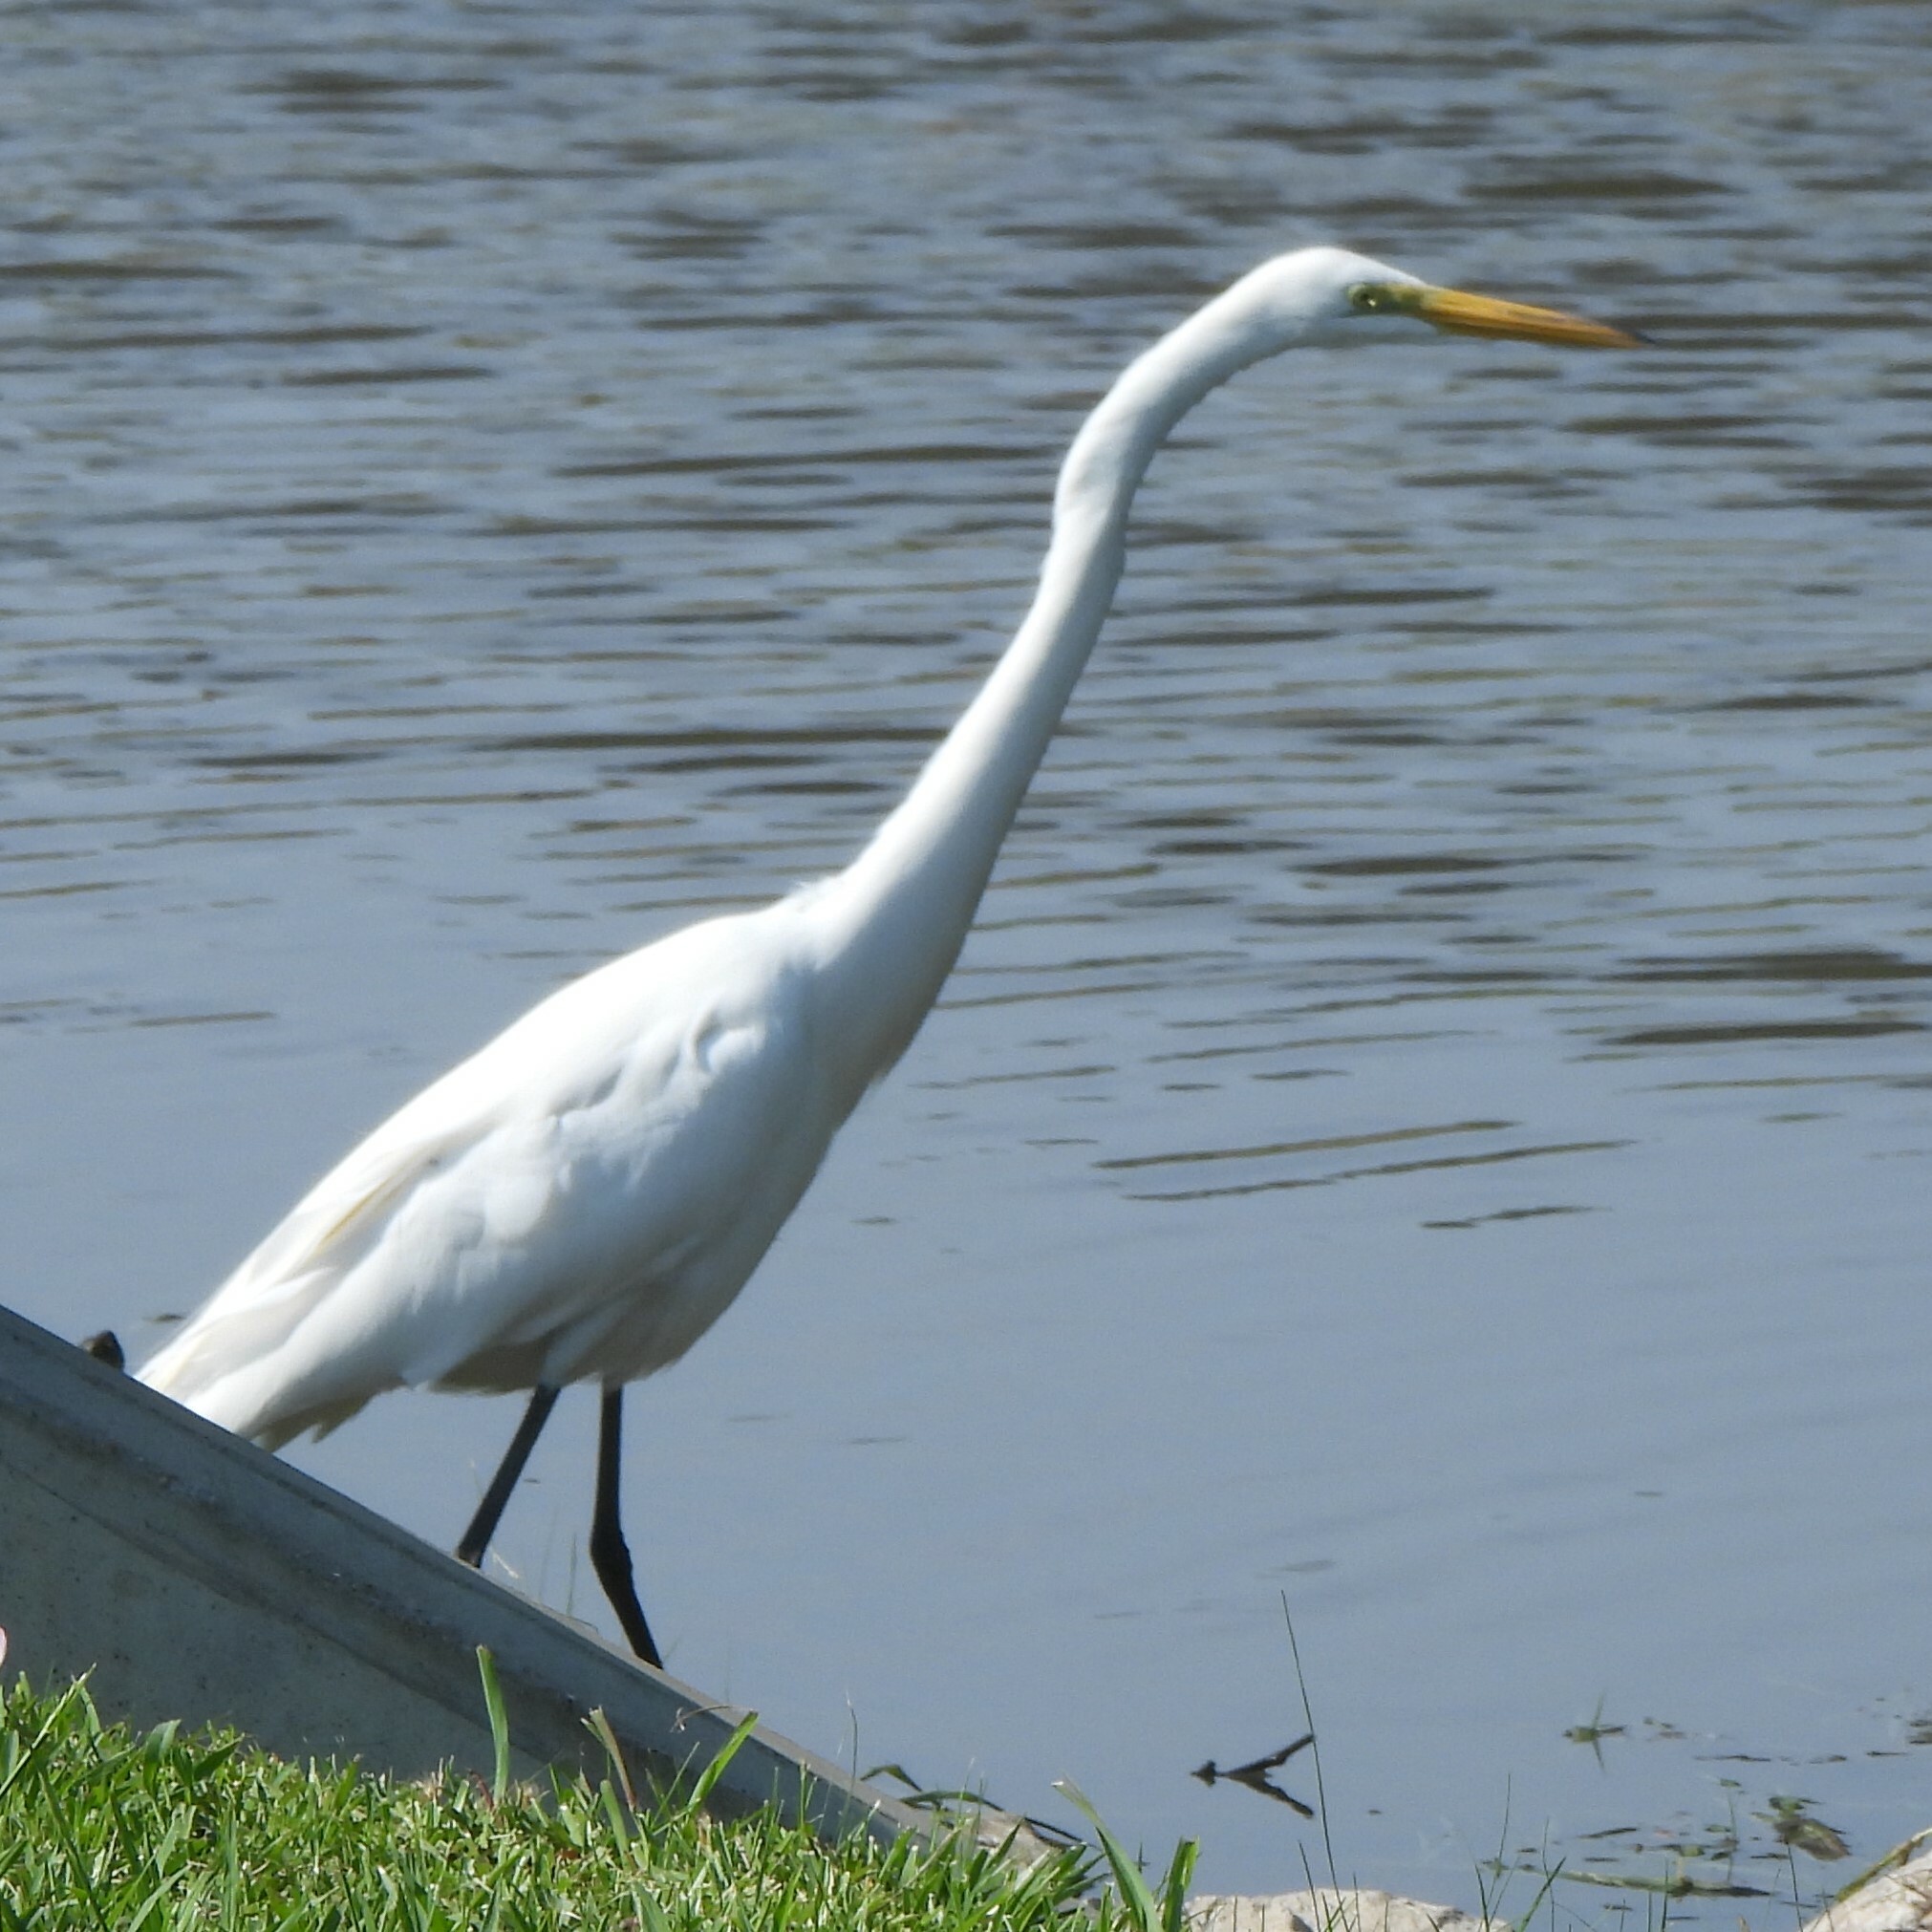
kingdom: Animalia
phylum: Chordata
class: Aves
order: Pelecaniformes
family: Ardeidae
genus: Ardea
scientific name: Ardea alba
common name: Great egret
